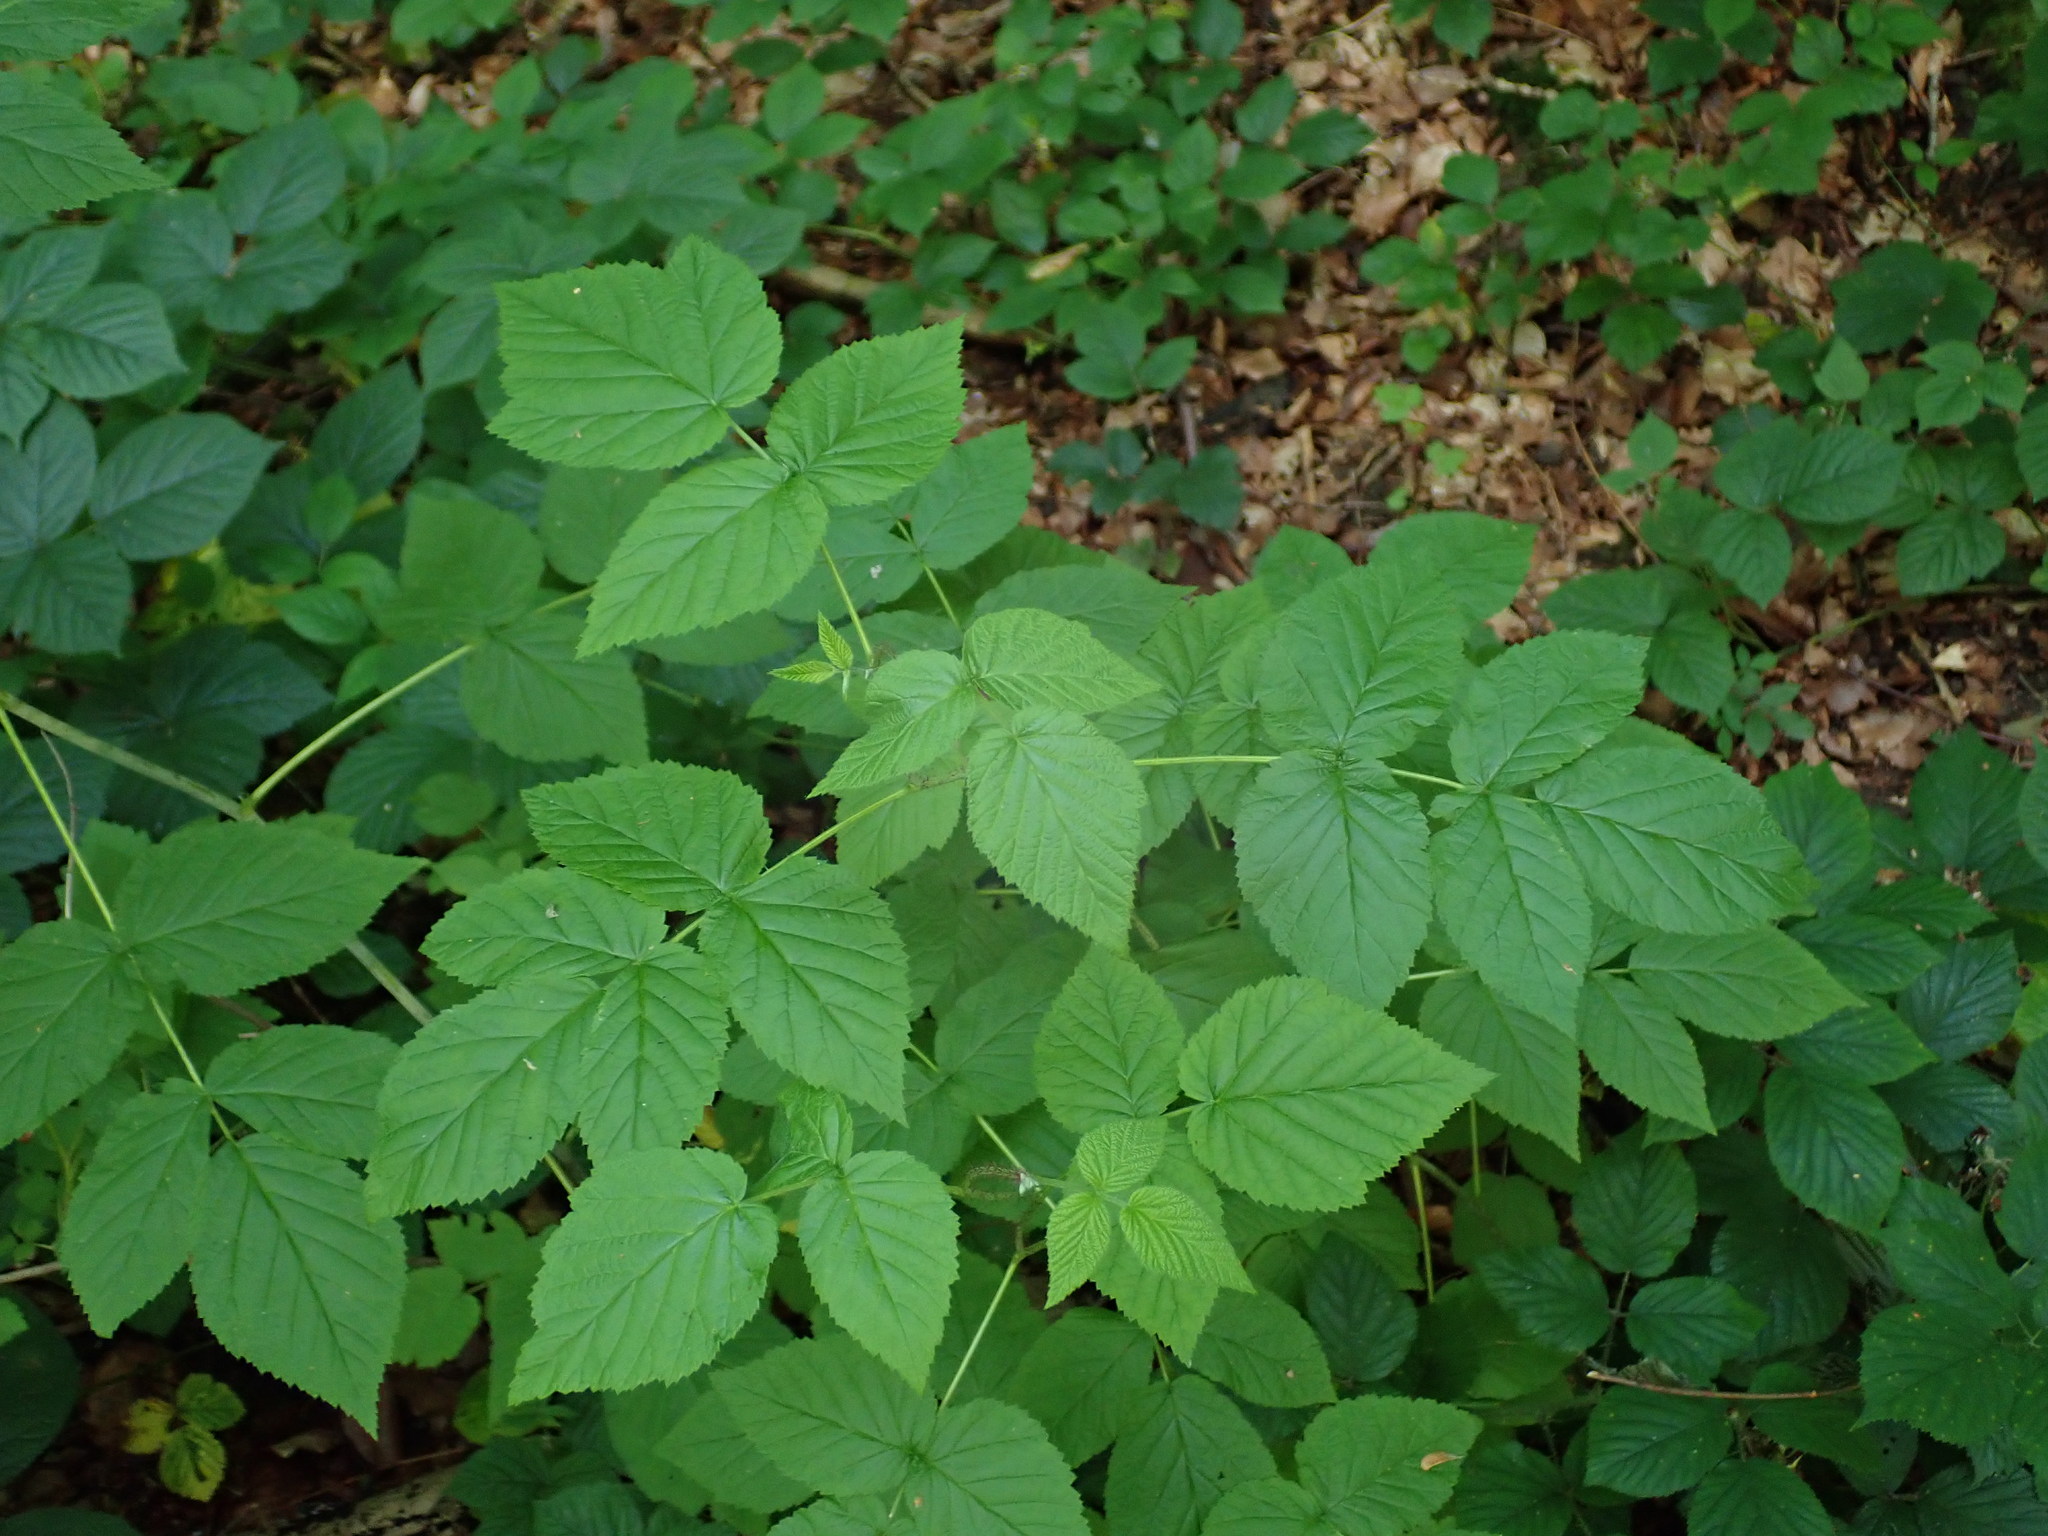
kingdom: Plantae
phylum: Tracheophyta
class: Magnoliopsida
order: Rosales
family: Rosaceae
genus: Rubus
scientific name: Rubus idaeus
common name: Raspberry
